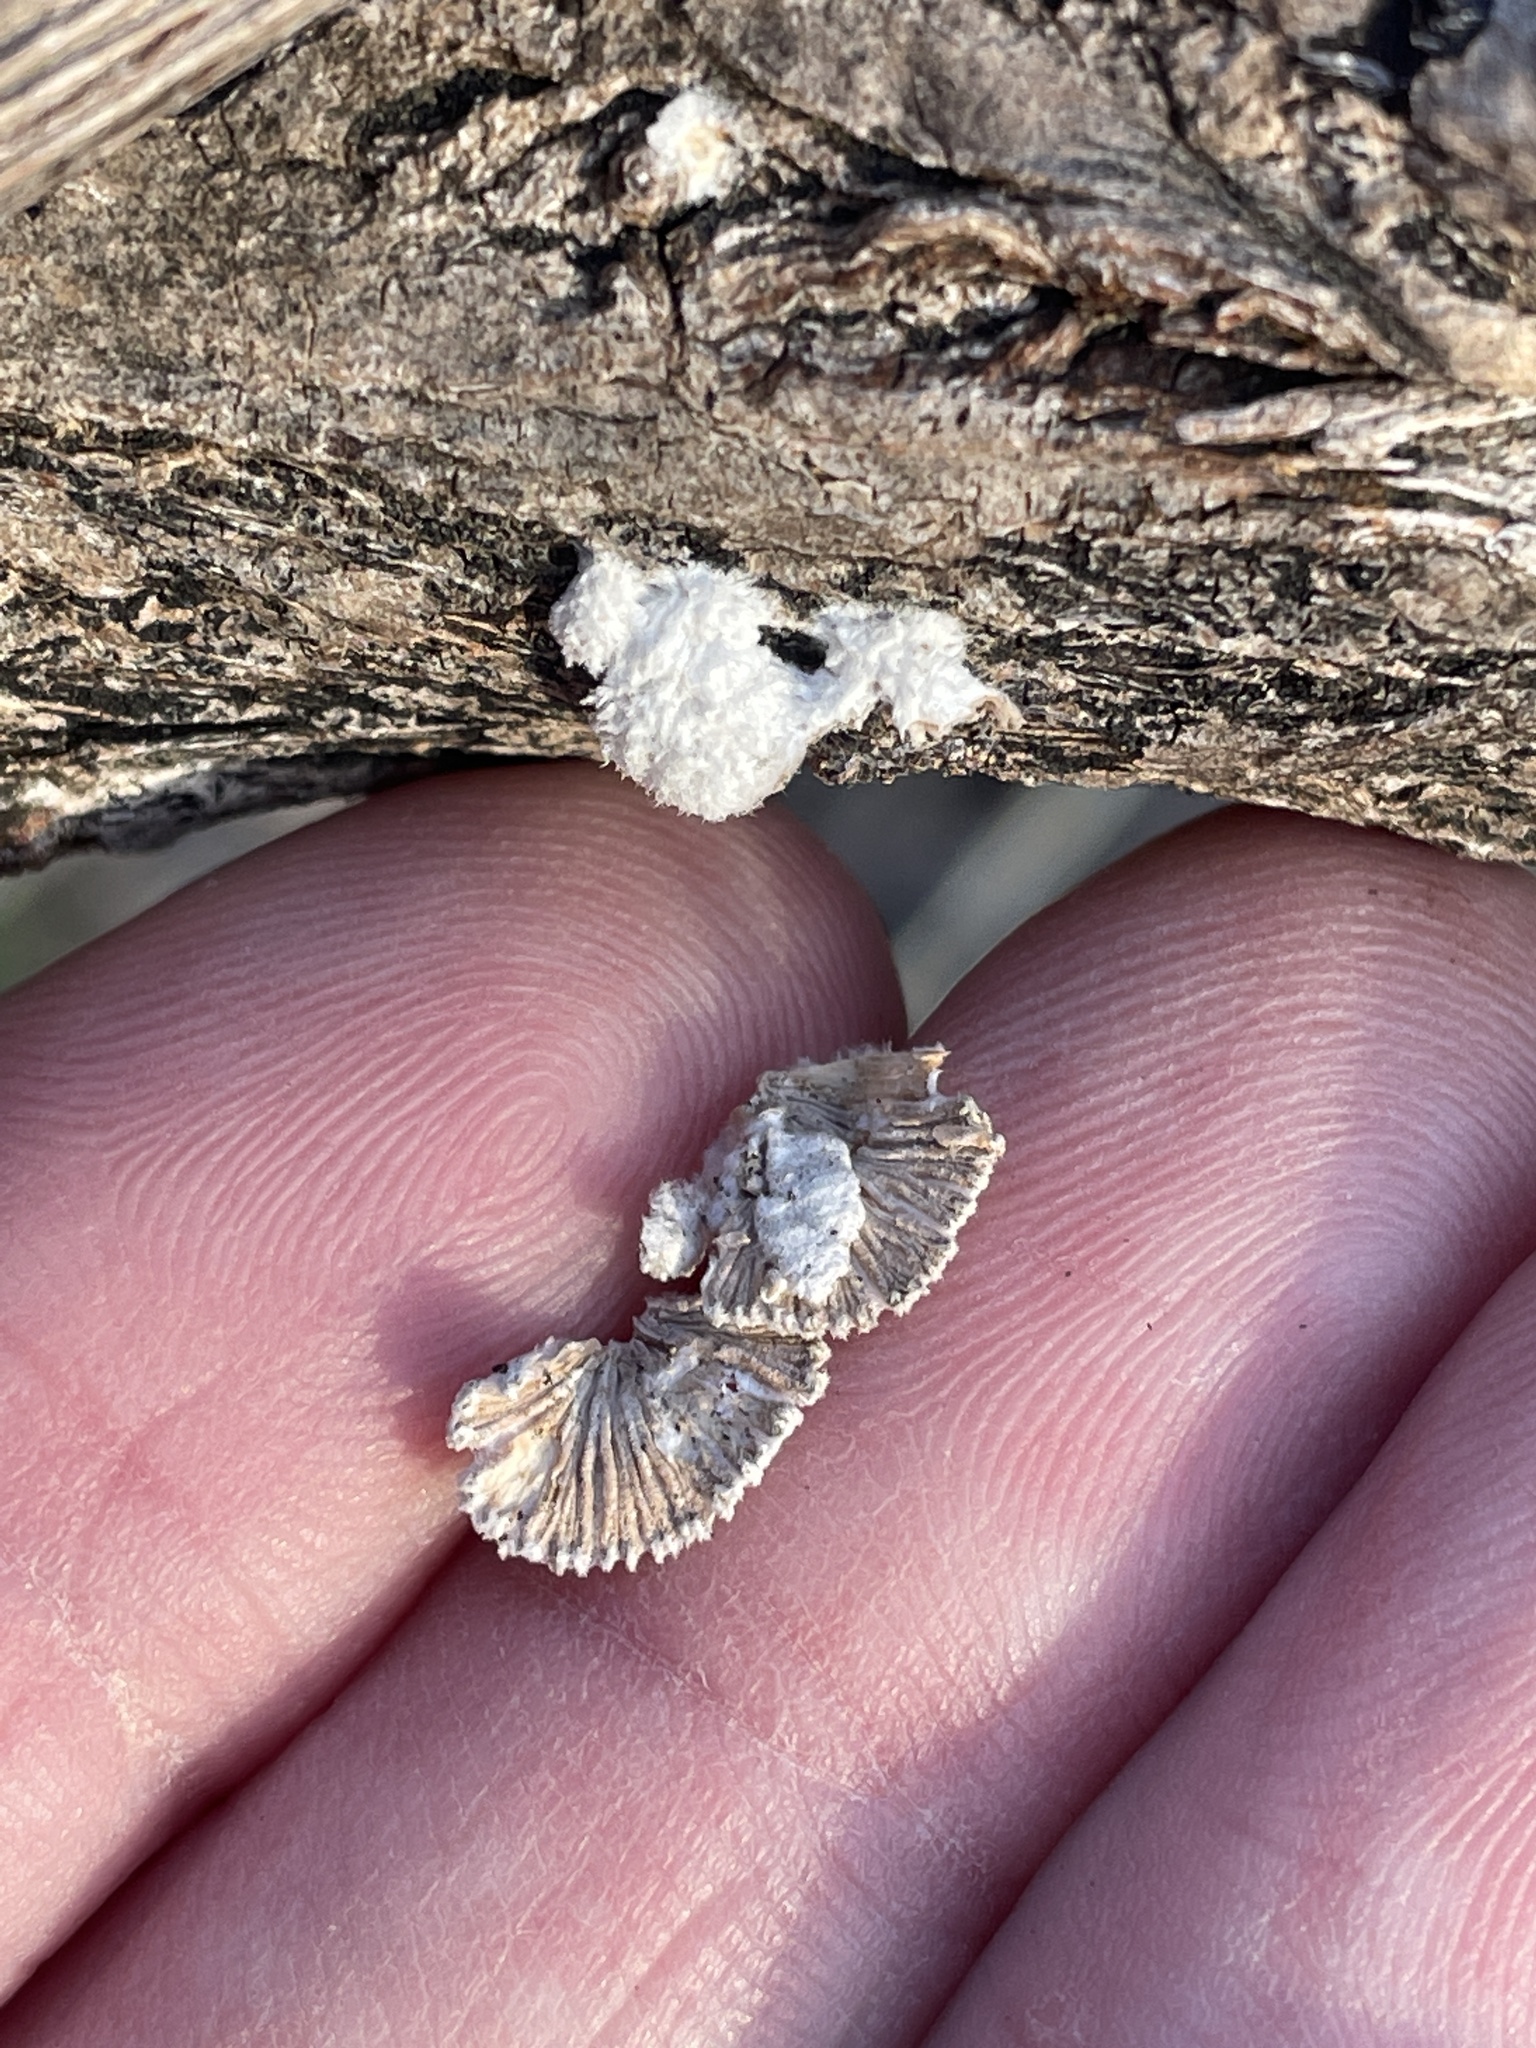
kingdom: Fungi
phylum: Basidiomycota
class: Agaricomycetes
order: Agaricales
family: Schizophyllaceae
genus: Schizophyllum
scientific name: Schizophyllum commune
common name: Common porecrust
